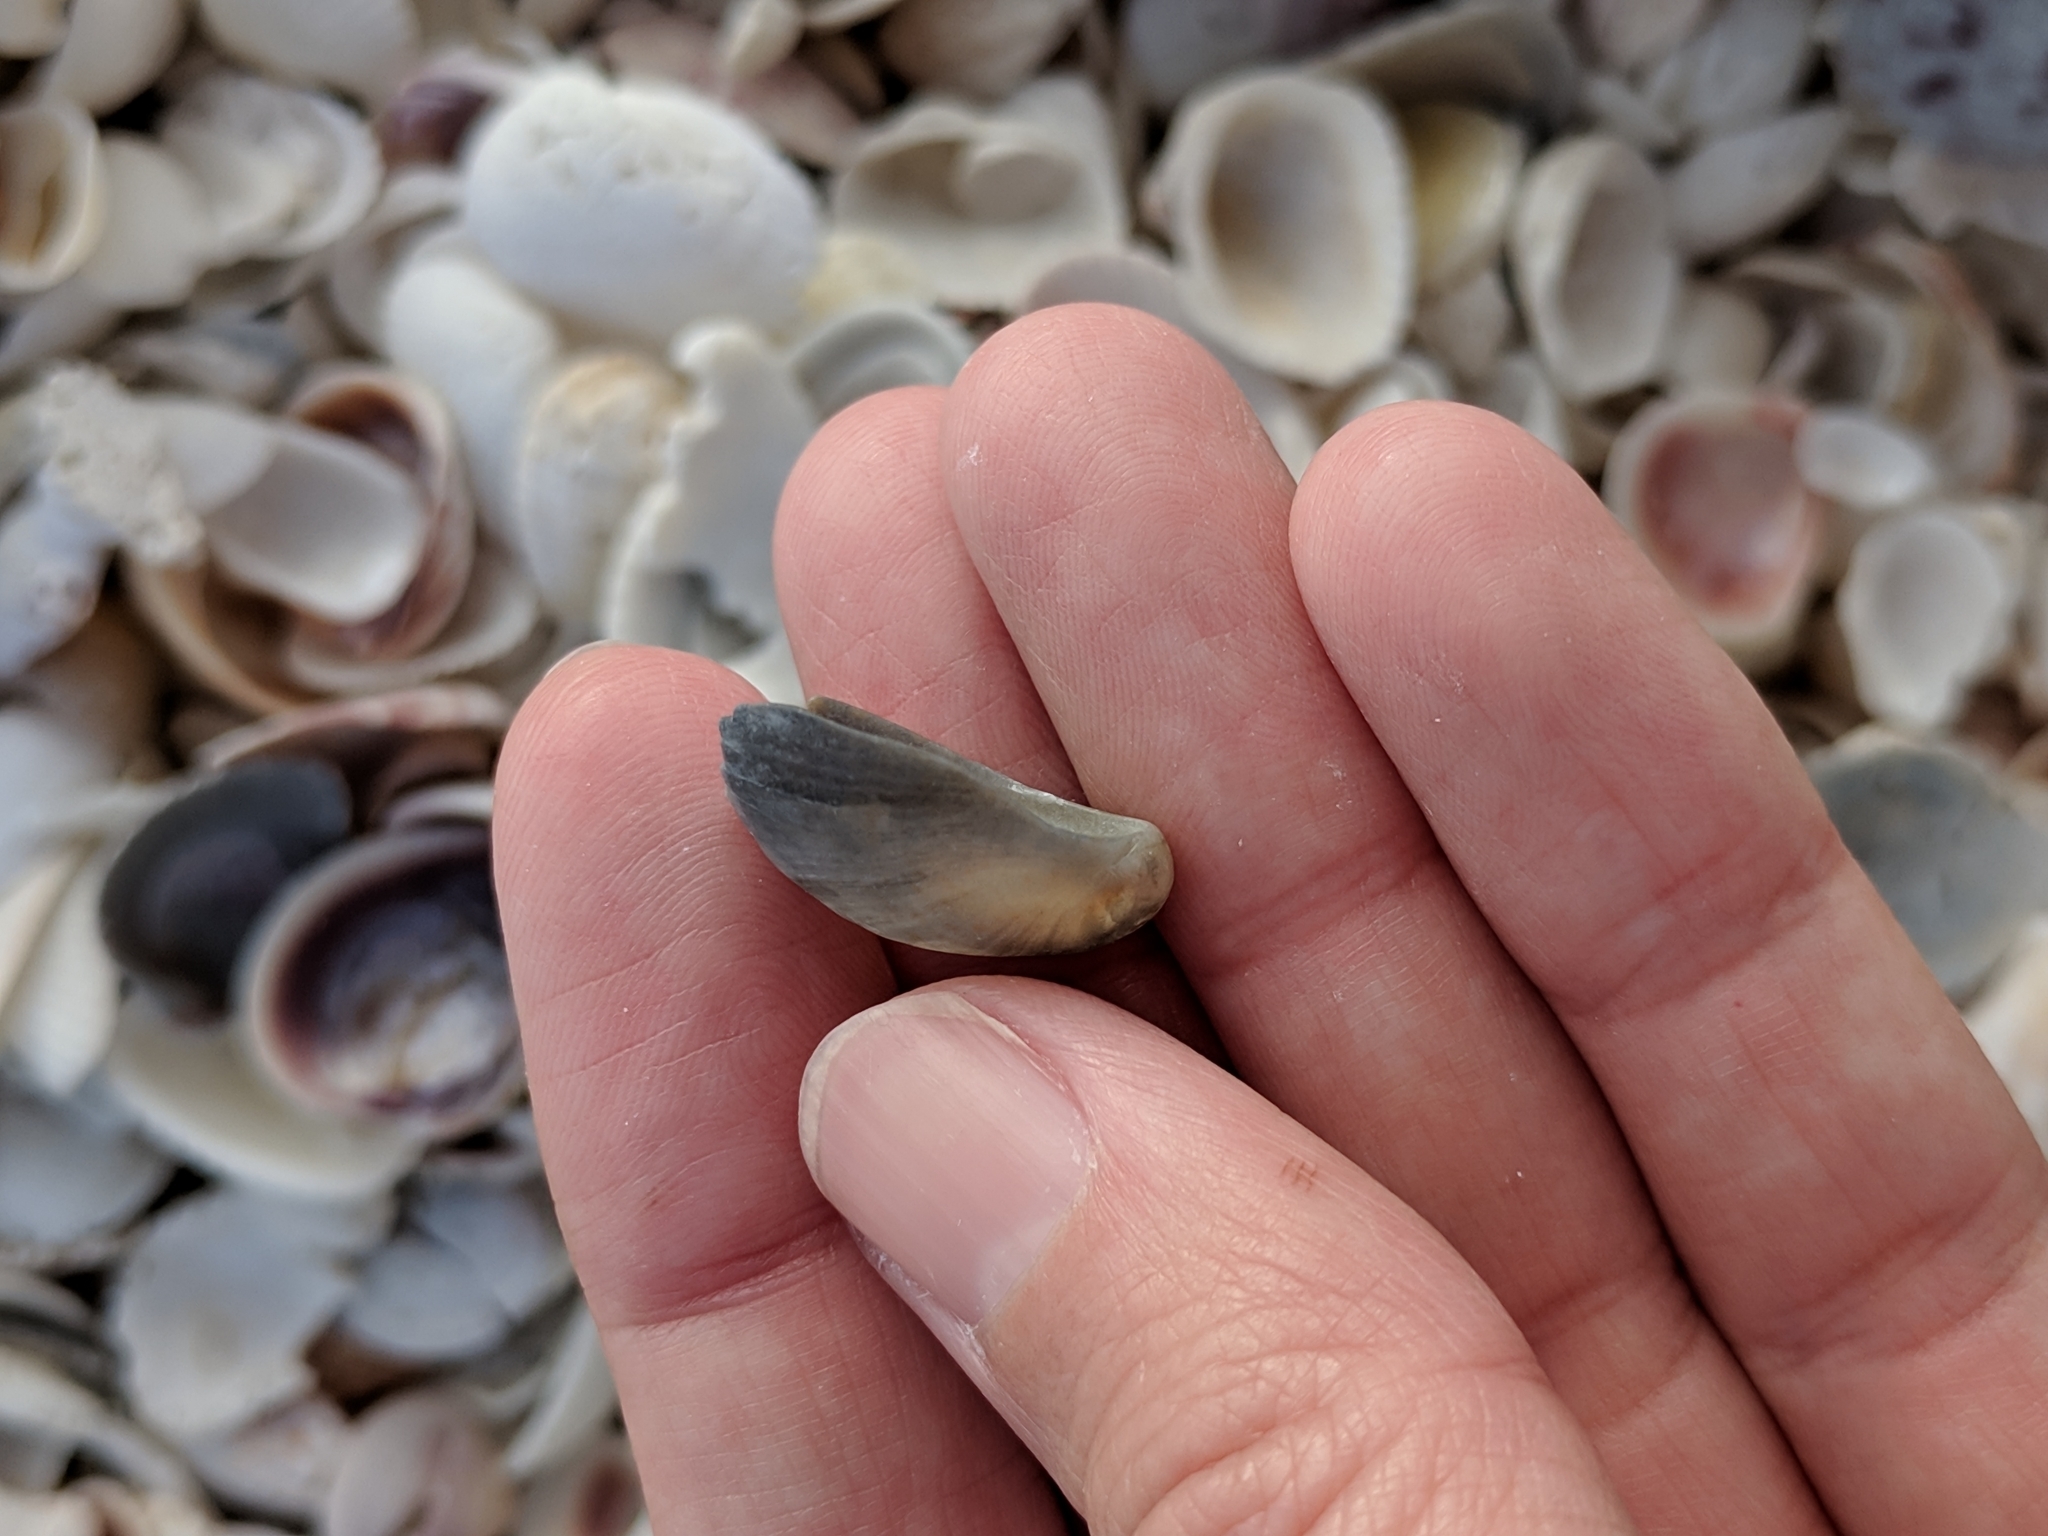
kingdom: Animalia
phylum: Mollusca
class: Gastropoda
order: Littorinimorpha
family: Calyptraeidae
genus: Crepidula
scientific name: Crepidula fornicata
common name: Slipper limpet
